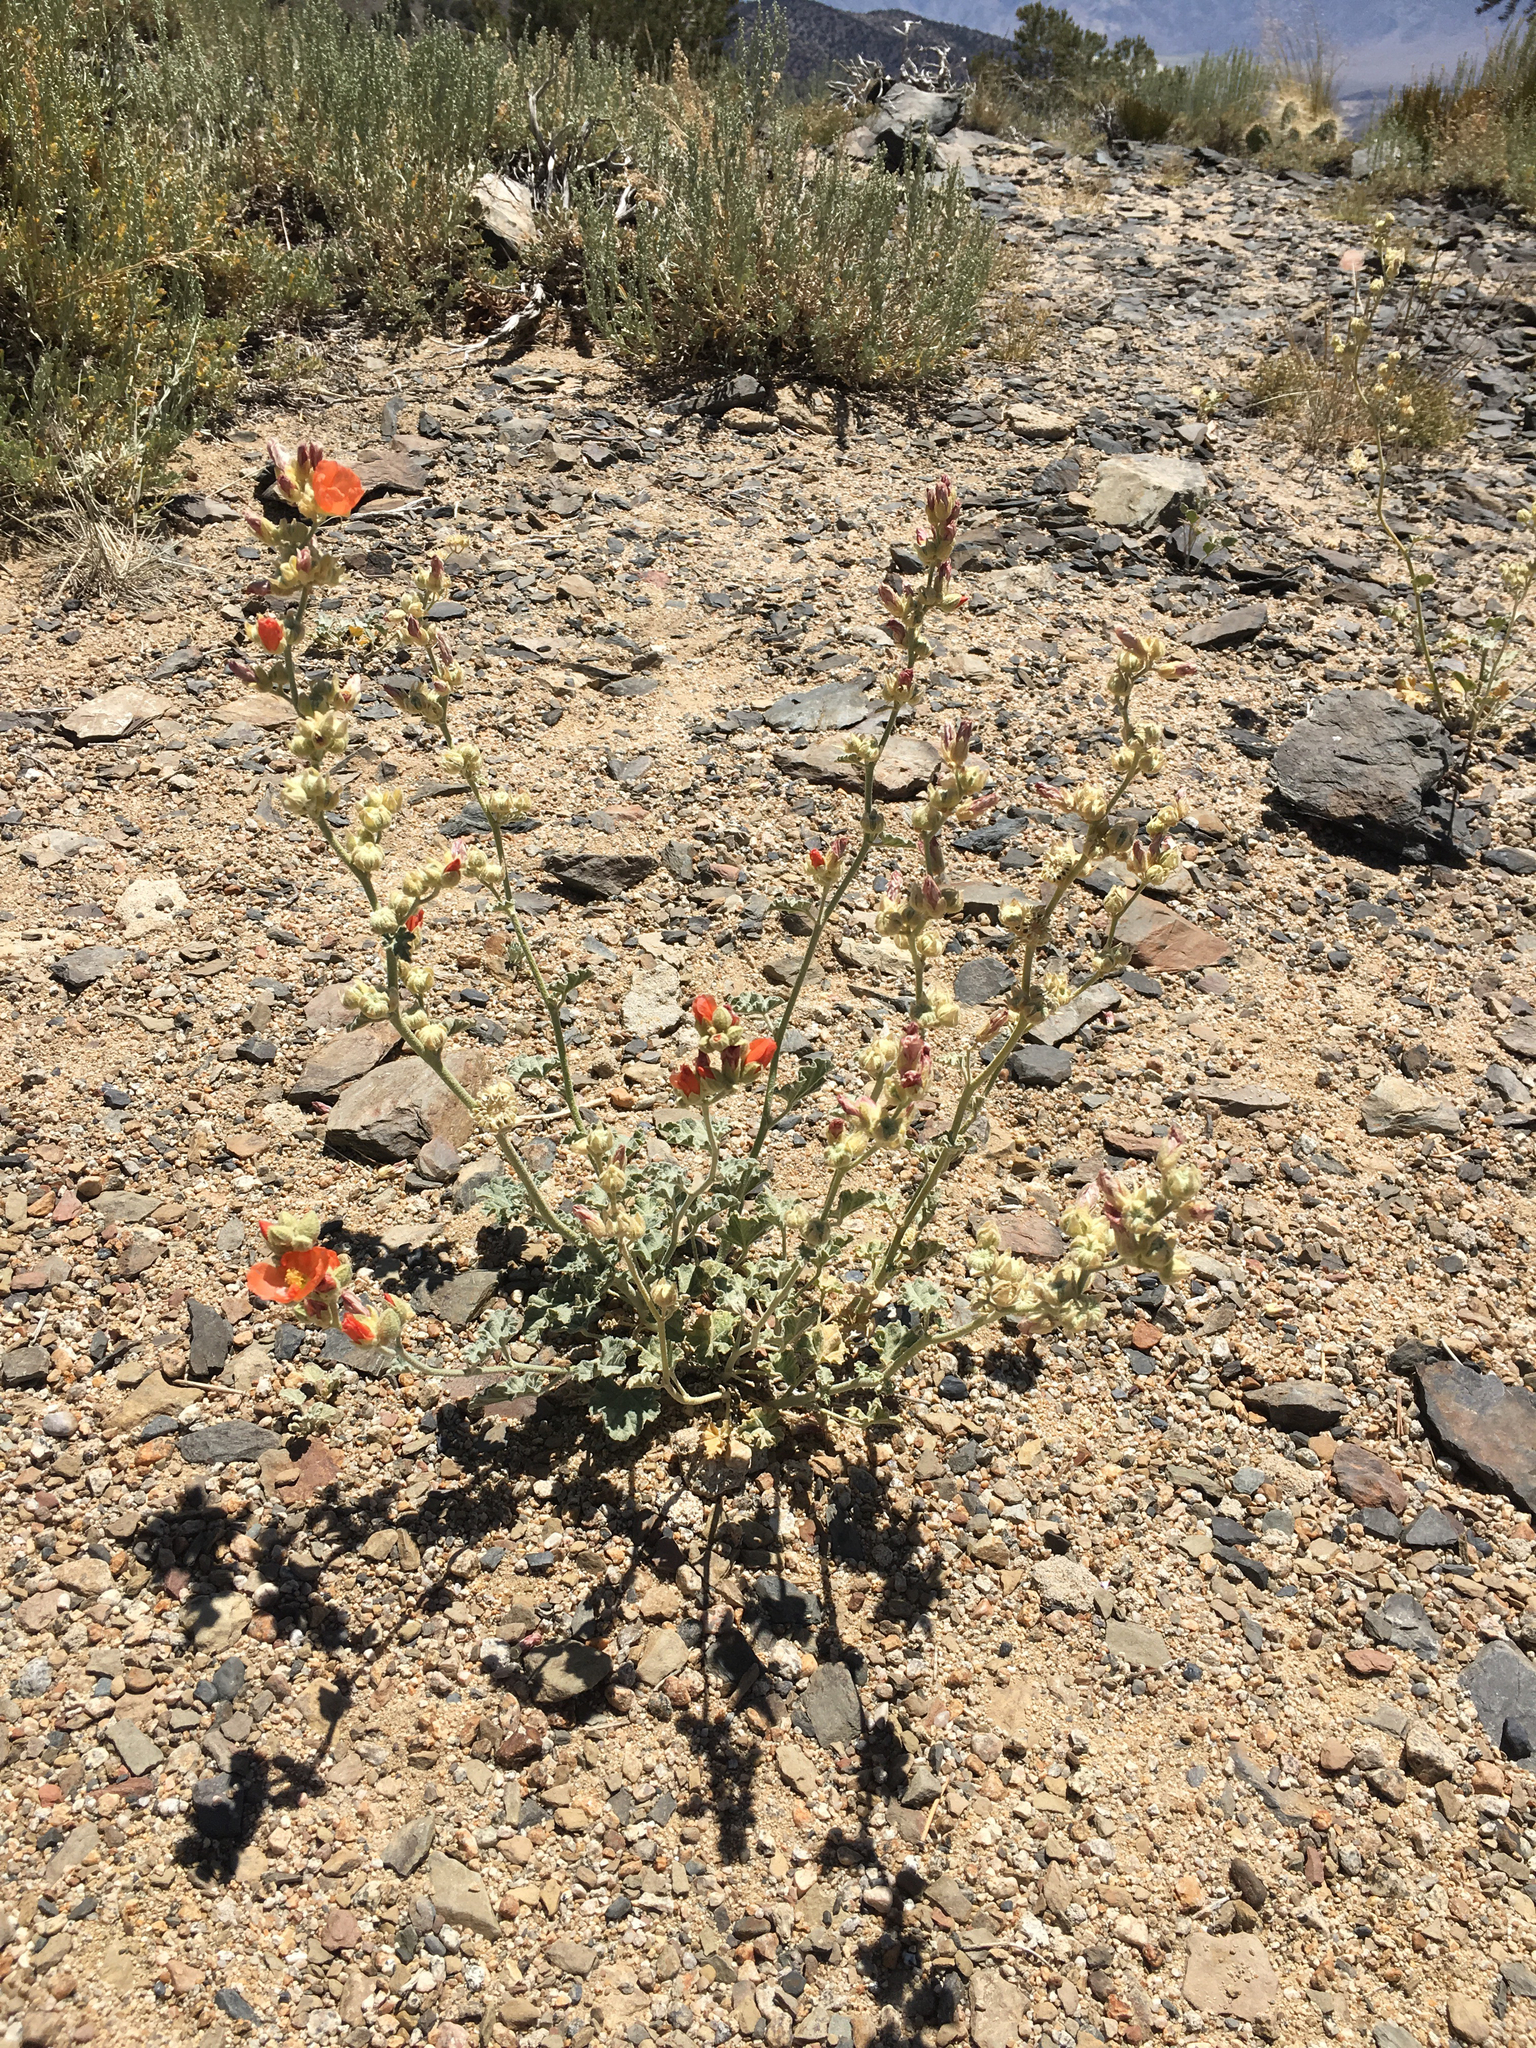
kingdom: Plantae
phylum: Tracheophyta
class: Magnoliopsida
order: Malvales
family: Malvaceae
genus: Sphaeralcea
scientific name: Sphaeralcea ambigua
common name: Apricot globe-mallow
